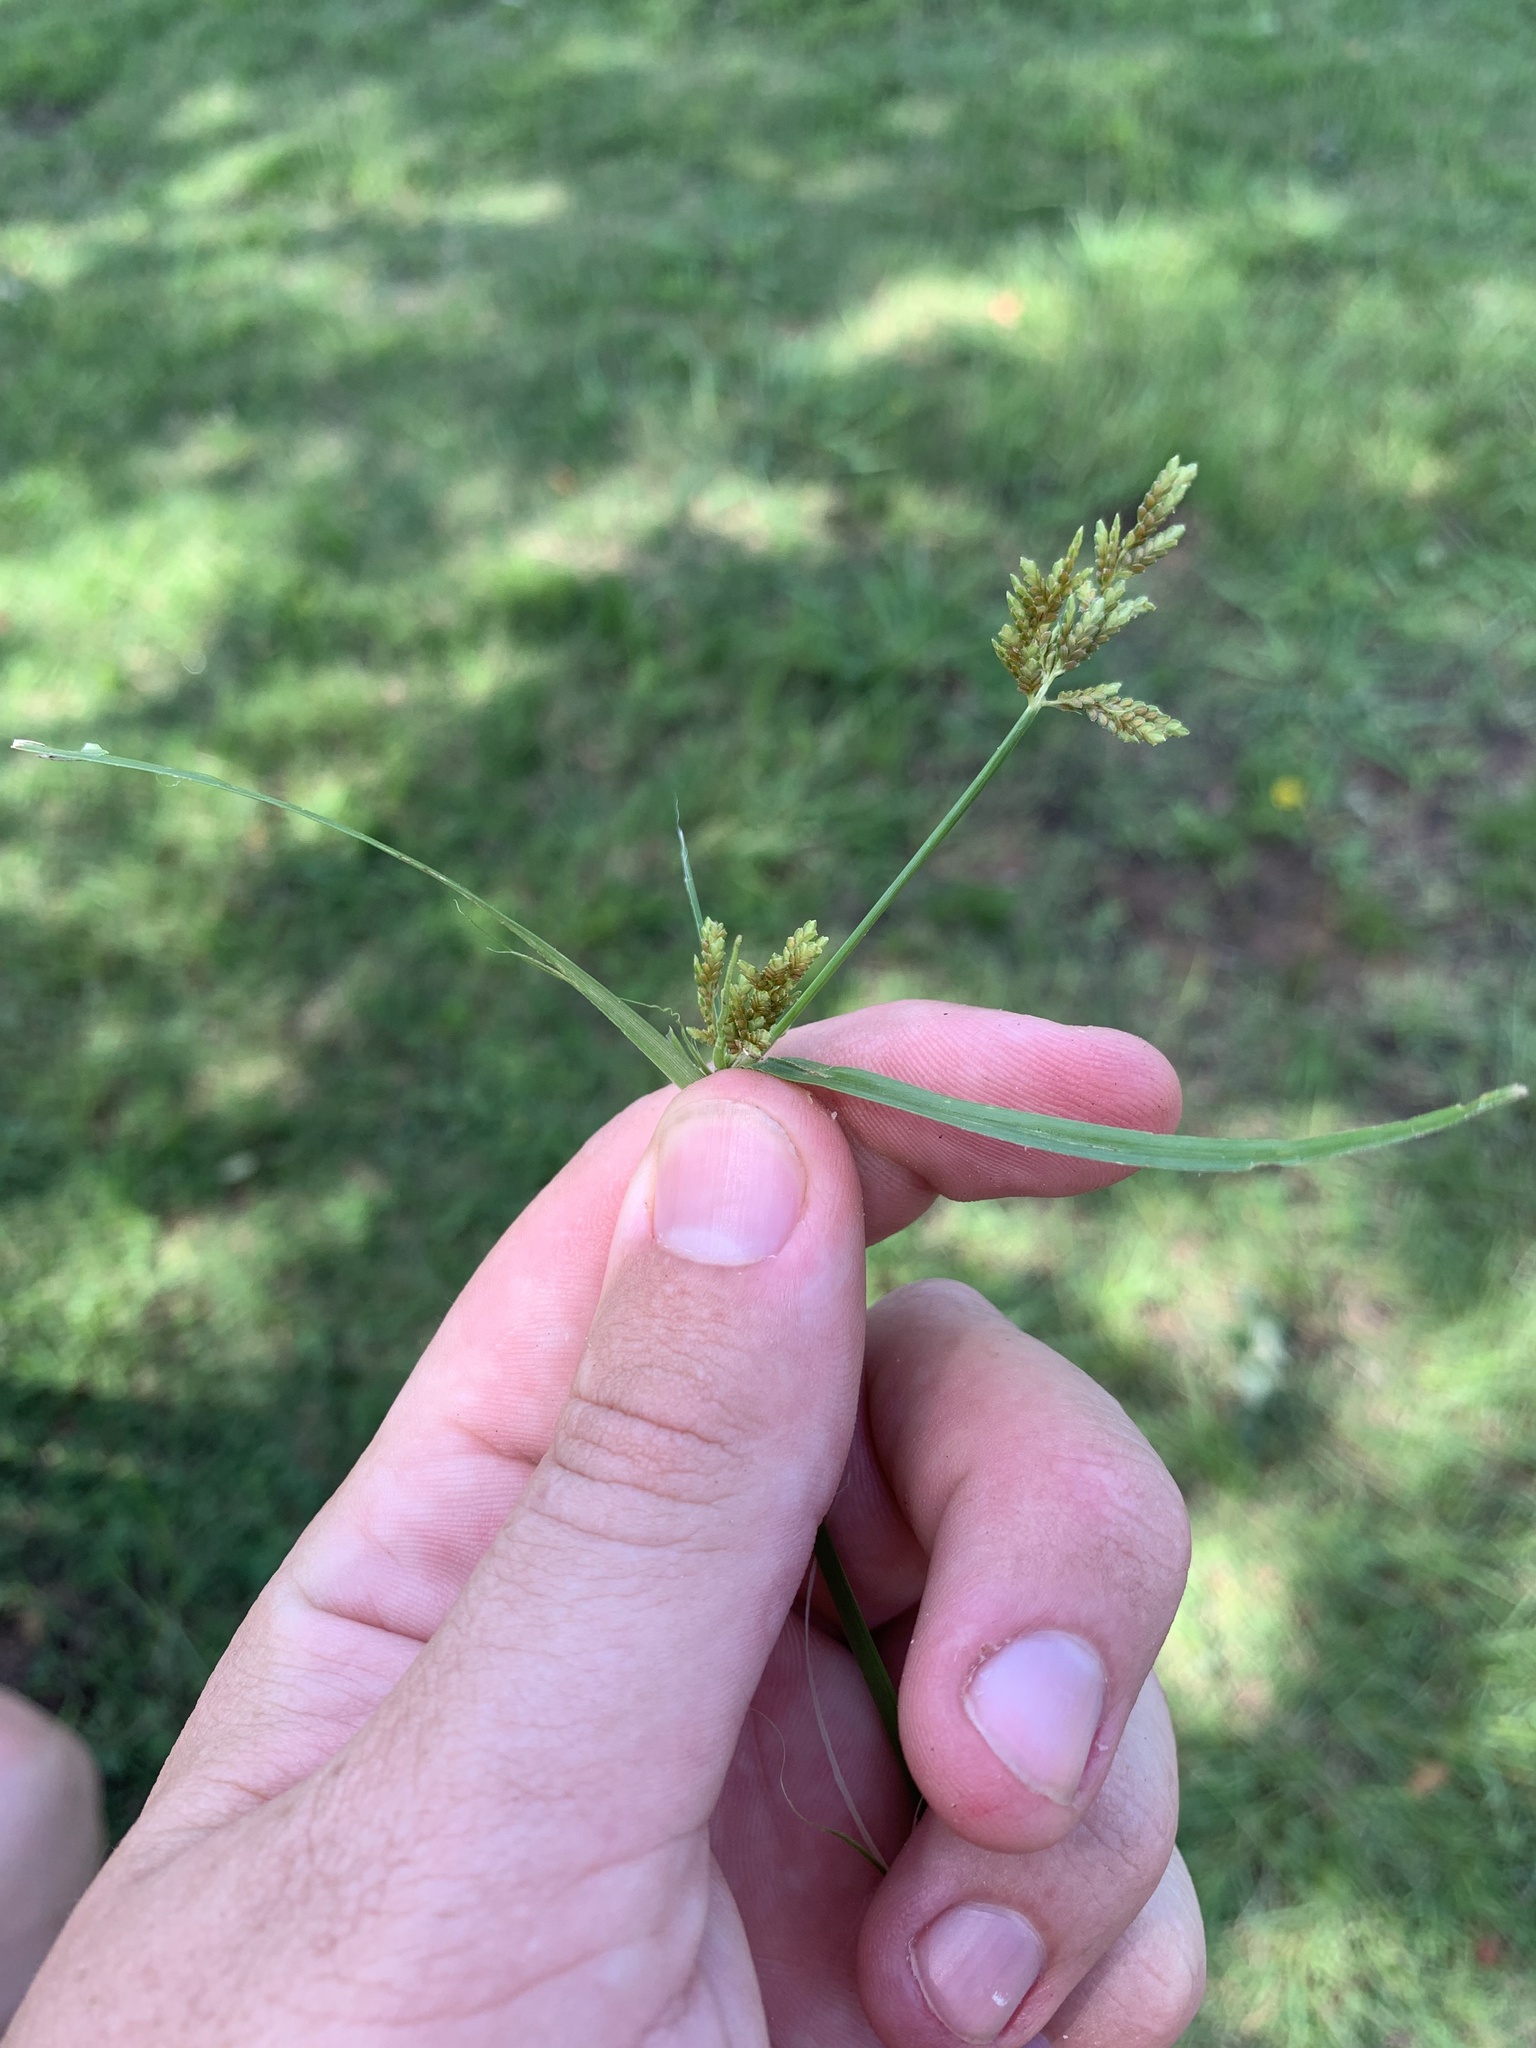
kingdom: Plantae
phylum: Tracheophyta
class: Liliopsida
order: Poales
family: Cyperaceae
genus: Cyperus
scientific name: Cyperus iria
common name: Ricefield flatsedge
